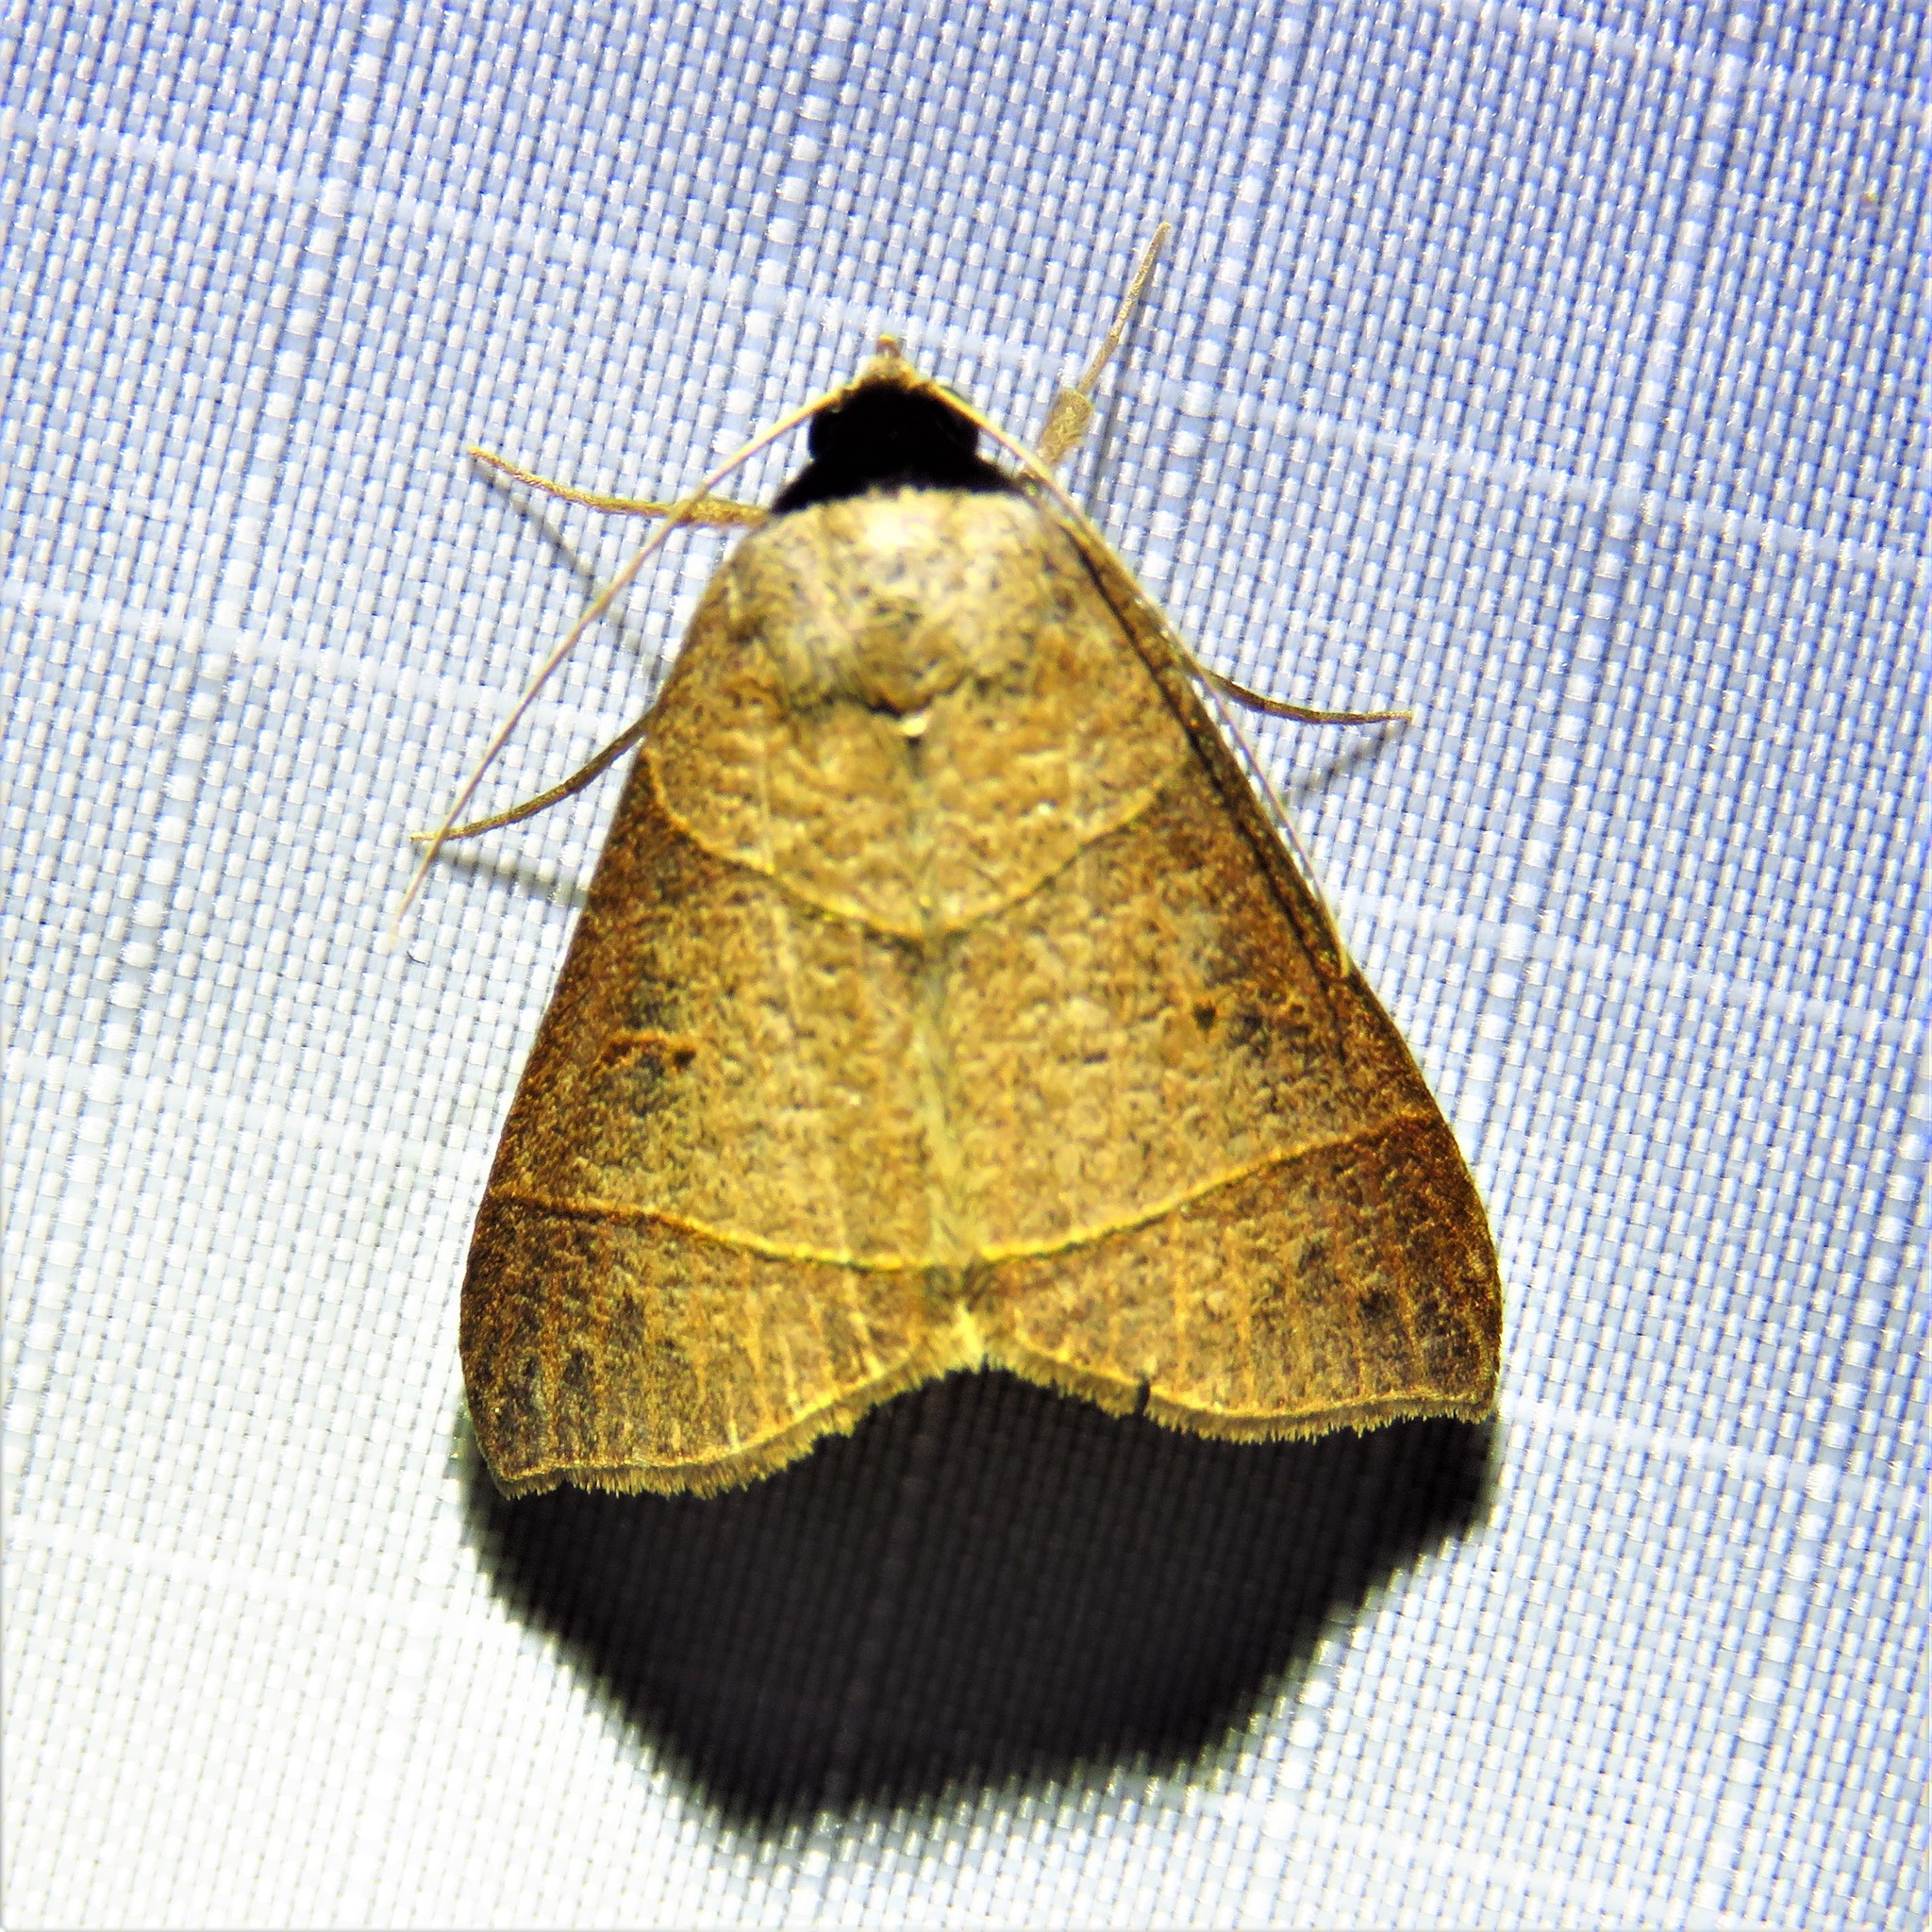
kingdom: Animalia
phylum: Arthropoda
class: Insecta
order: Lepidoptera
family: Erebidae
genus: Baniana
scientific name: Baniana veluticollis
